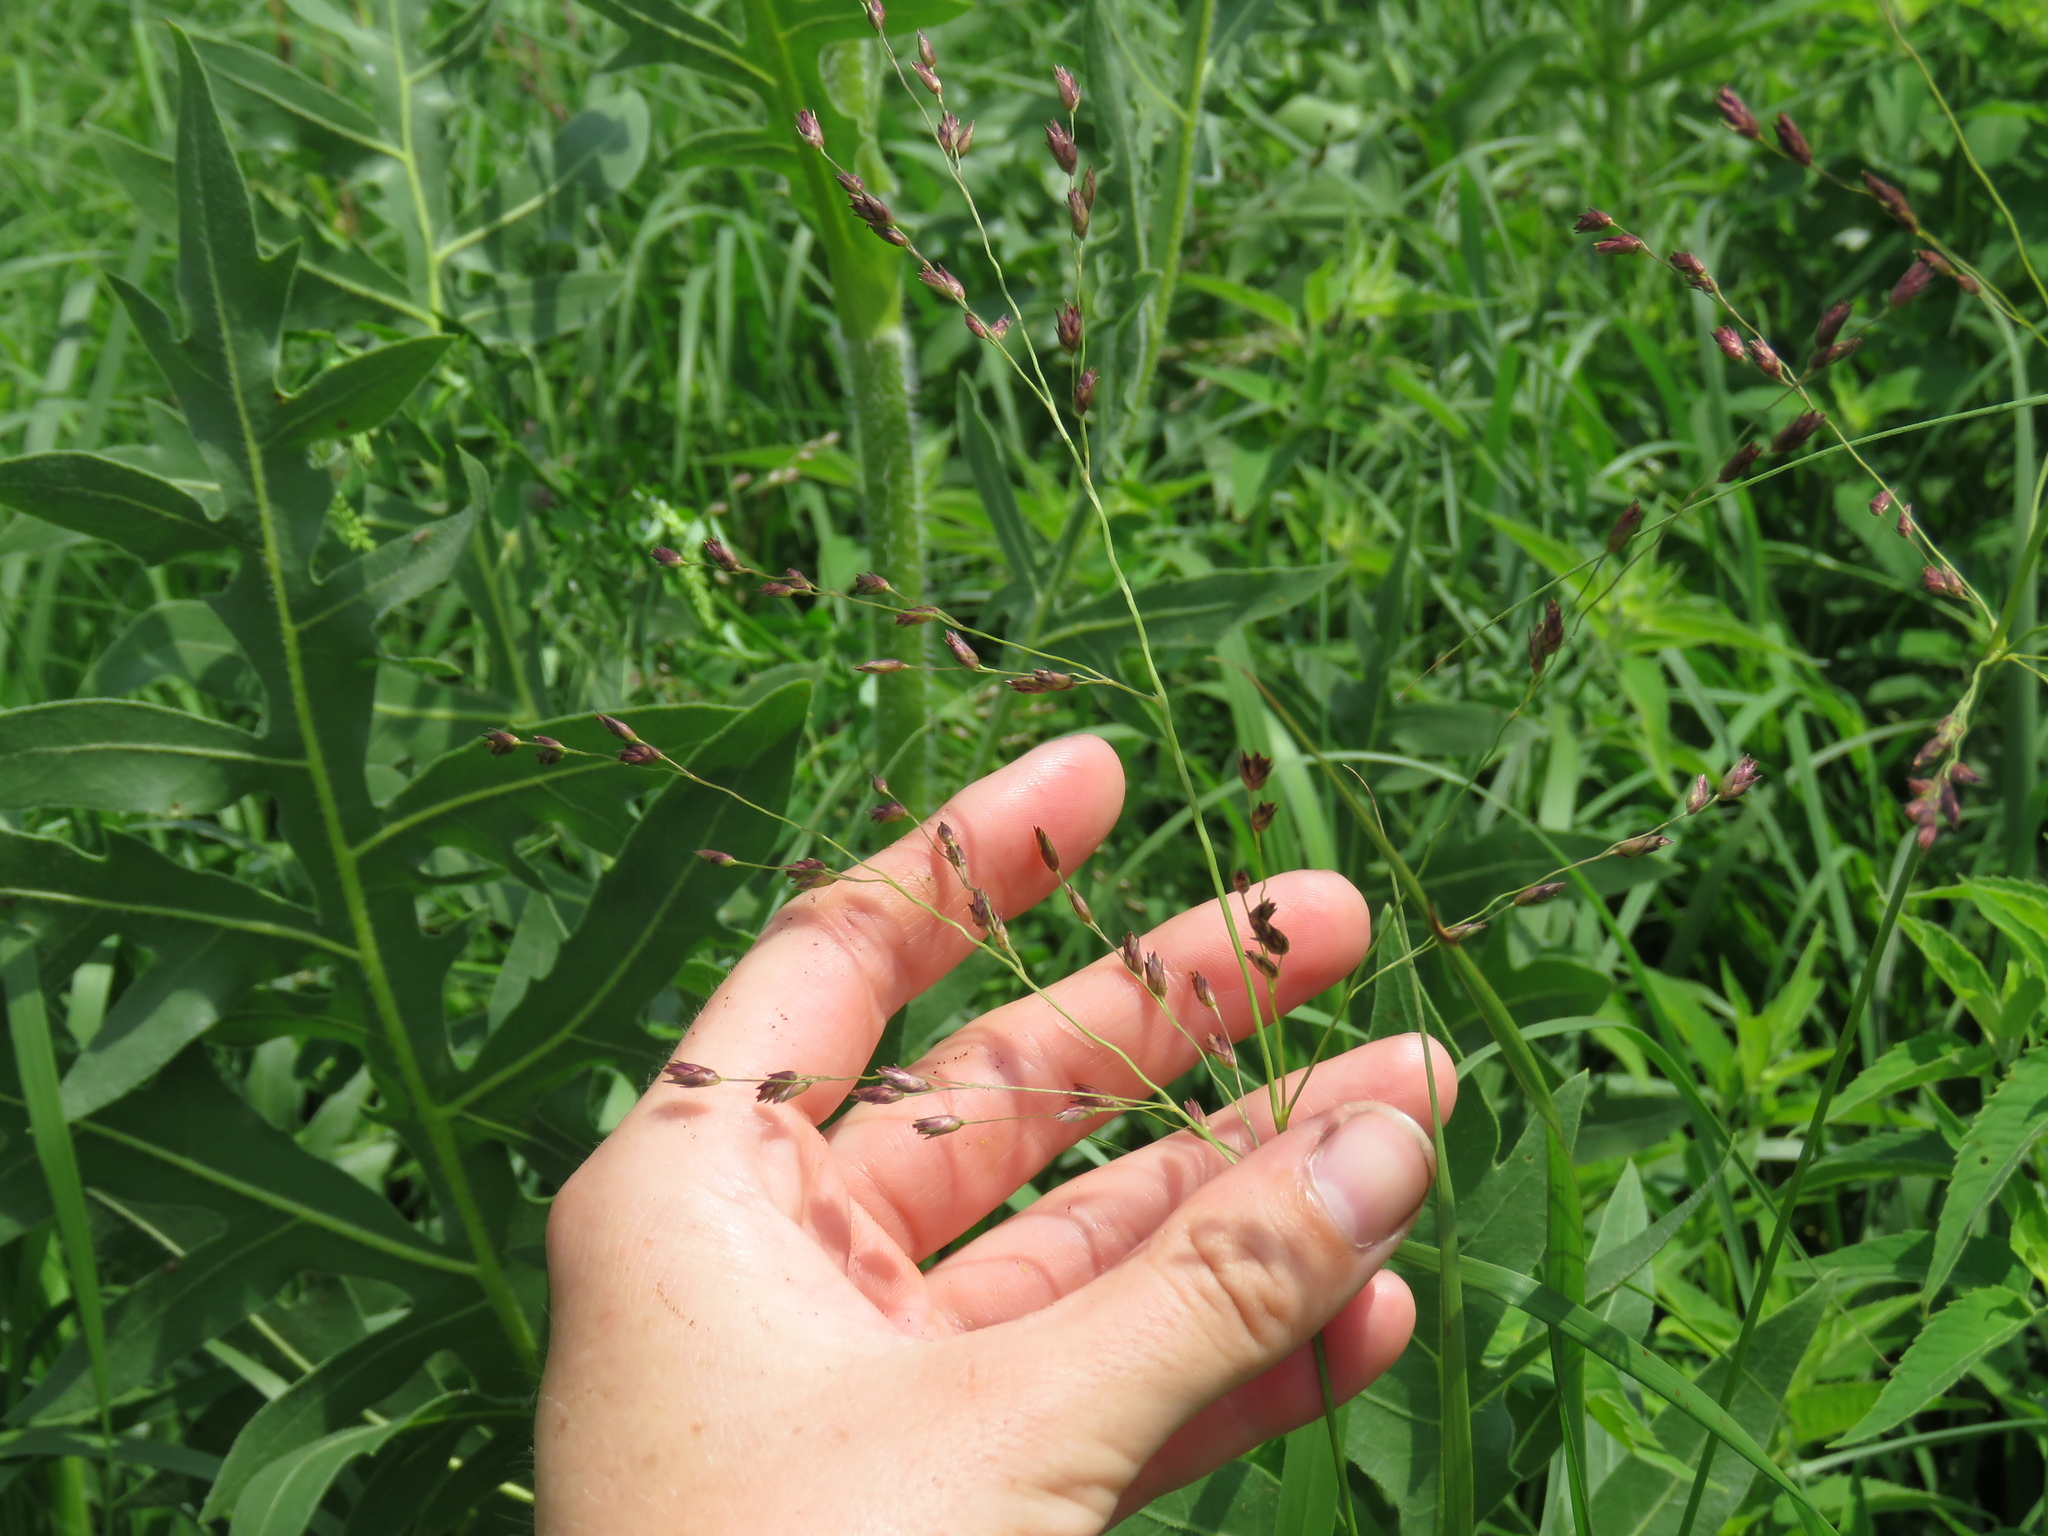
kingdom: Plantae
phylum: Tracheophyta
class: Liliopsida
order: Poales
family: Poaceae
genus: Panicum
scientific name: Panicum virgatum
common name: Switchgrass
